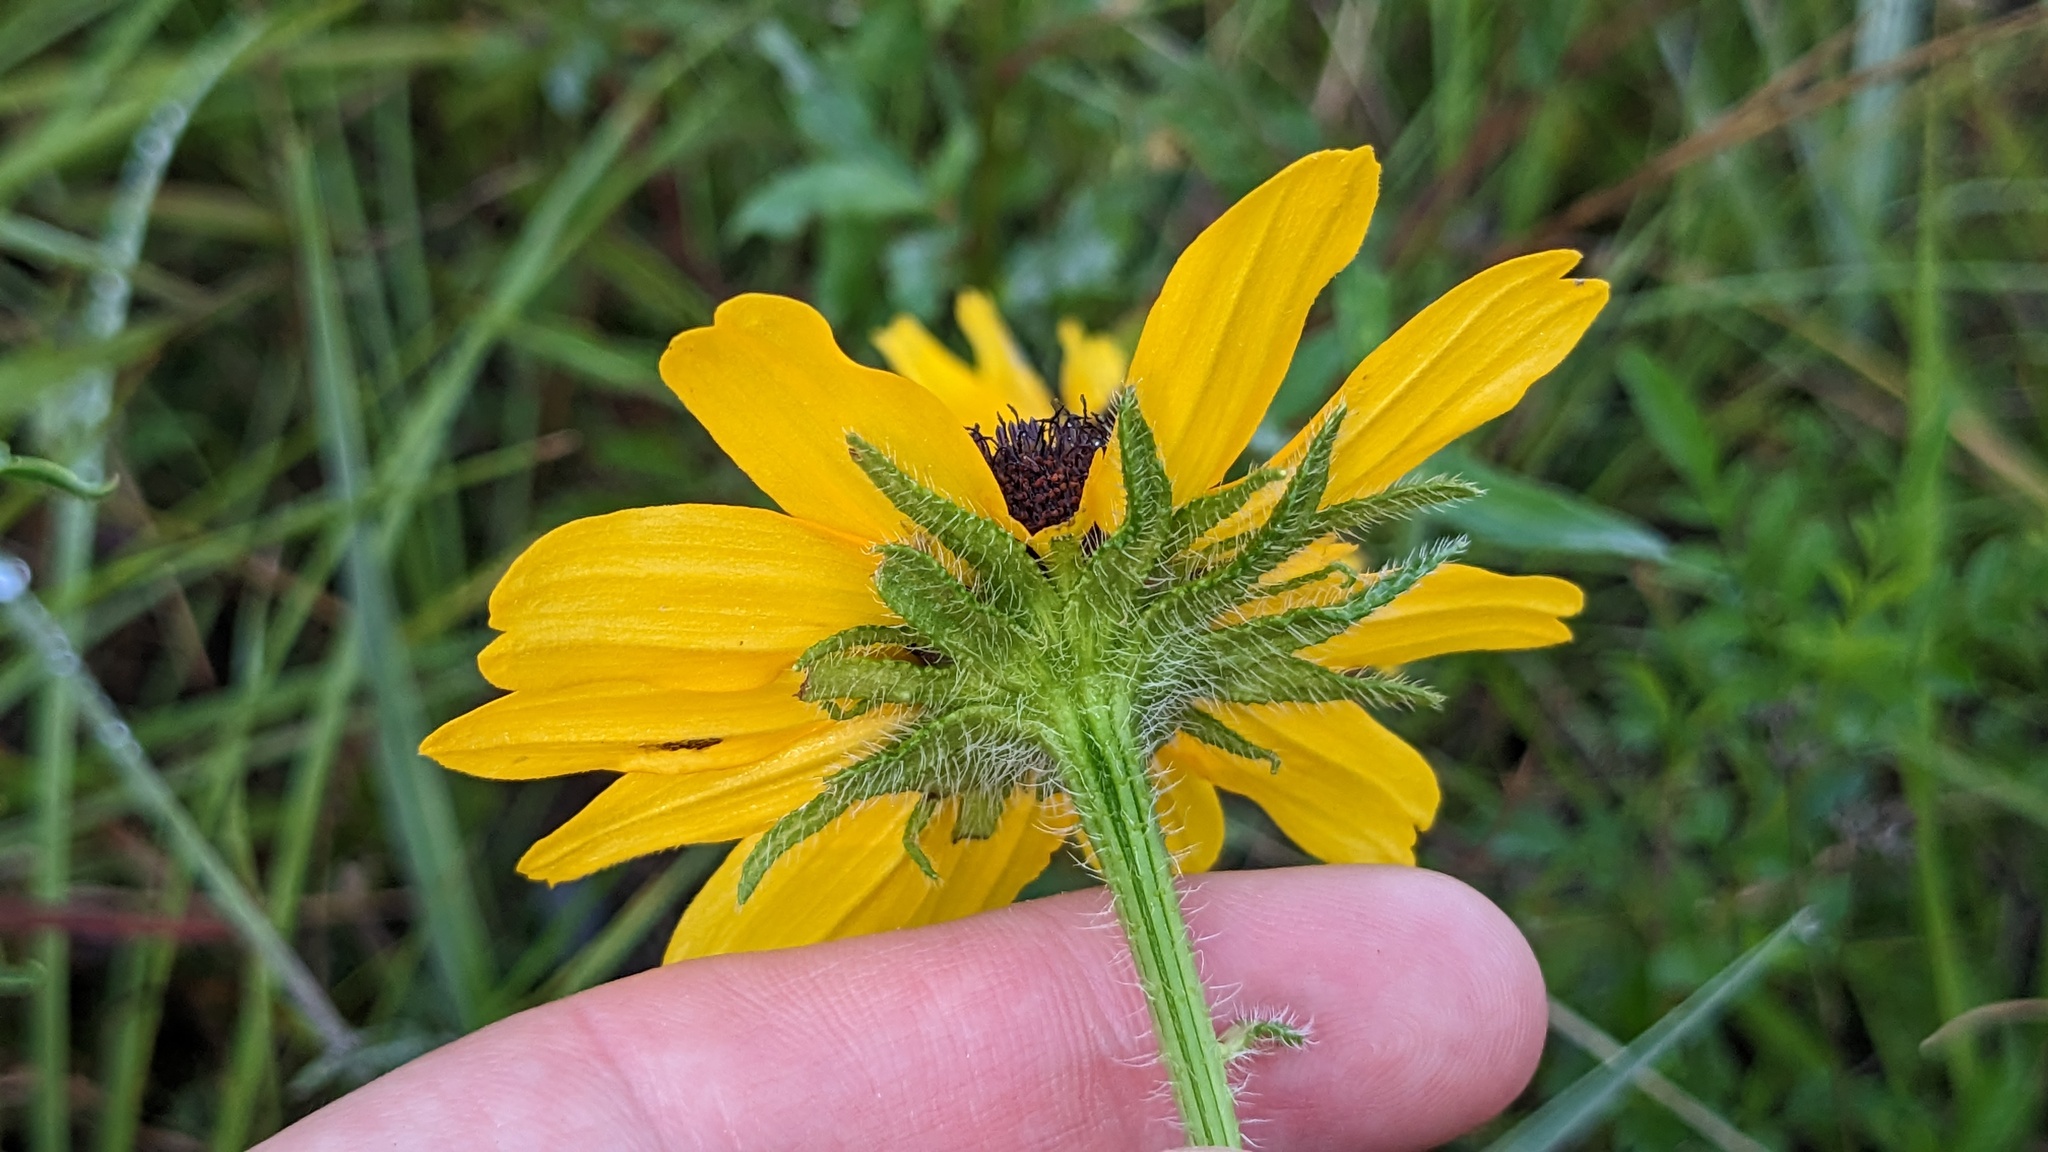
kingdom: Plantae
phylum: Tracheophyta
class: Magnoliopsida
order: Asterales
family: Asteraceae
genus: Rudbeckia
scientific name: Rudbeckia hirta
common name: Black-eyed-susan
